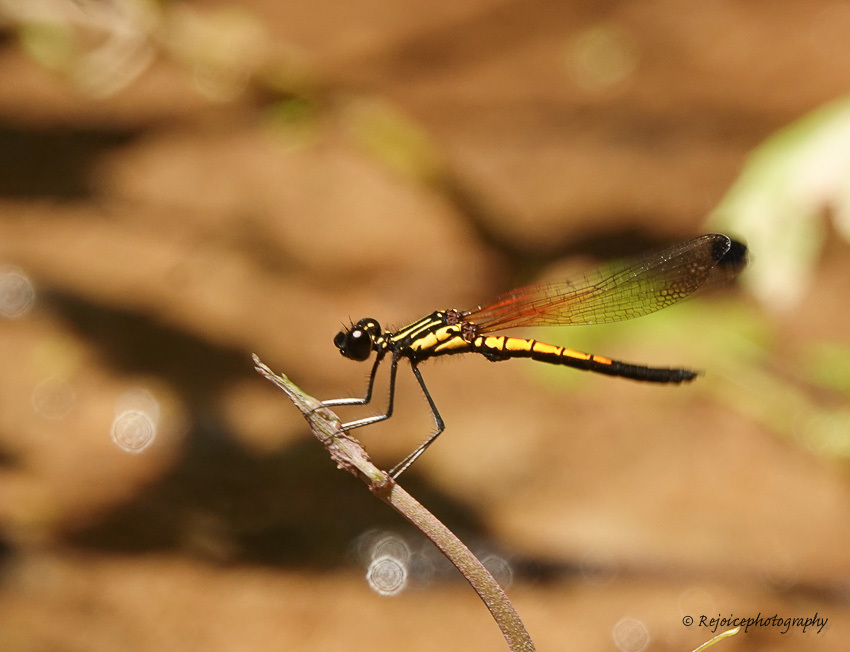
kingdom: Animalia
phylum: Arthropoda
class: Insecta
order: Odonata
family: Chlorocyphidae
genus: Libellago
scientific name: Libellago lineata
